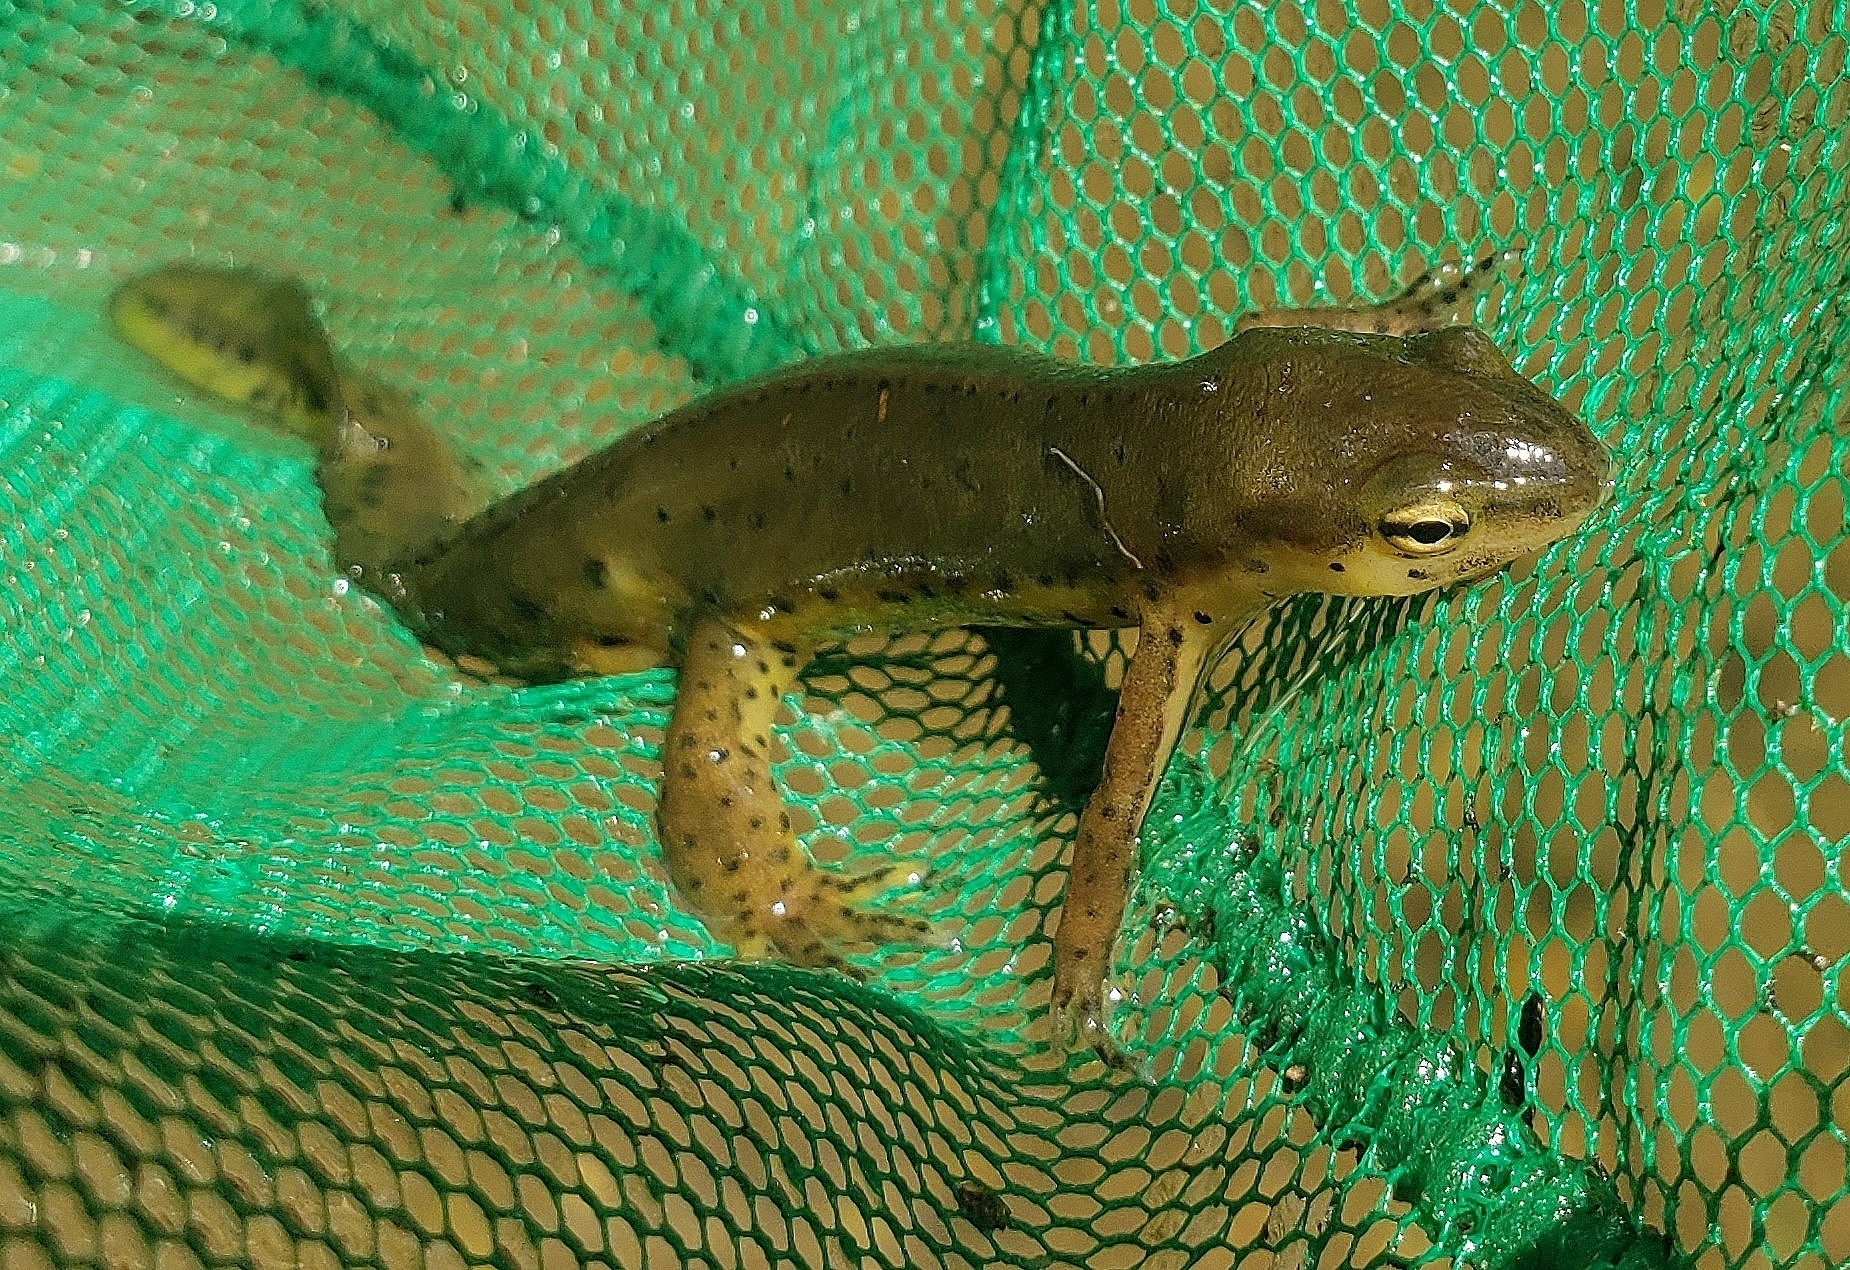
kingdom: Animalia
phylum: Chordata
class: Amphibia
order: Caudata
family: Salamandridae
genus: Notophthalmus
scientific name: Notophthalmus viridescens
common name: Eastern newt
